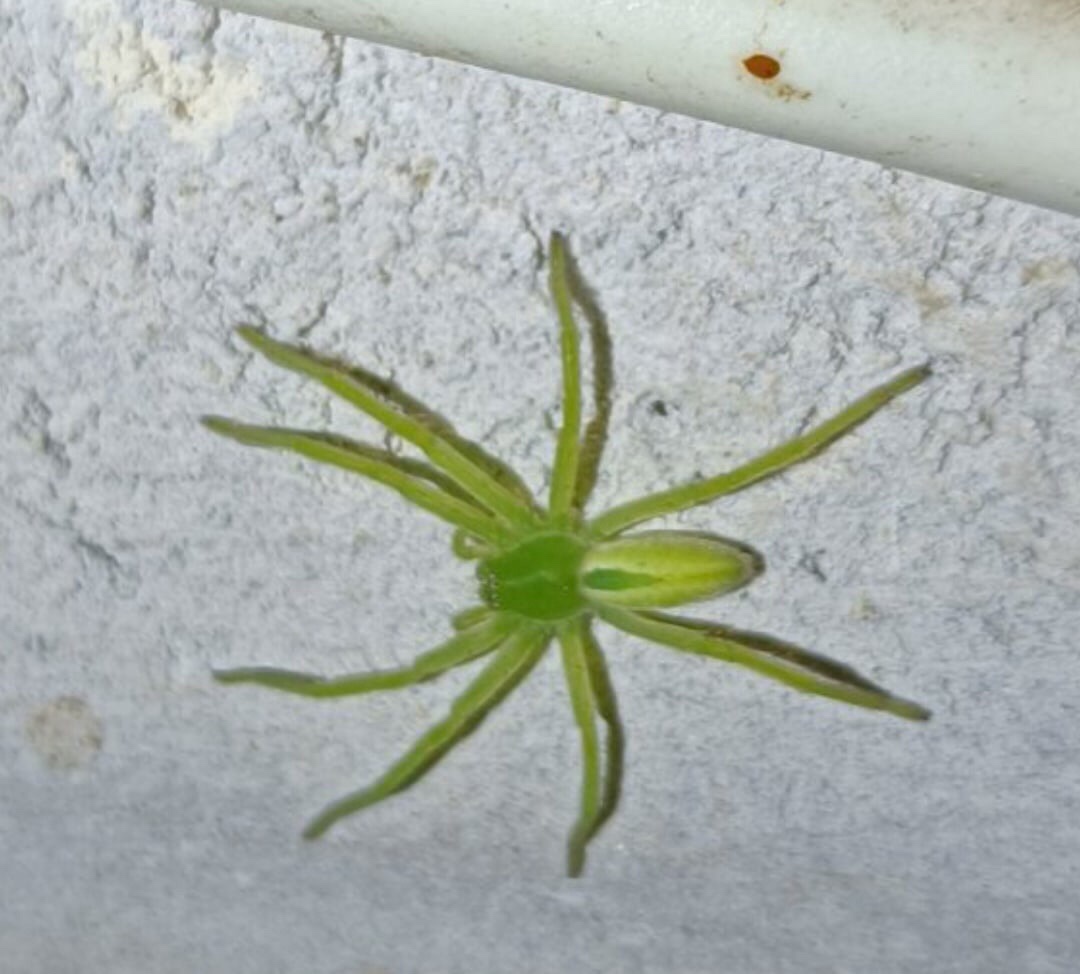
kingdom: Animalia
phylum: Arthropoda
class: Arachnida
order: Araneae
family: Sparassidae
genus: Micrommata
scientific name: Micrommata virescens
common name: Green spider
